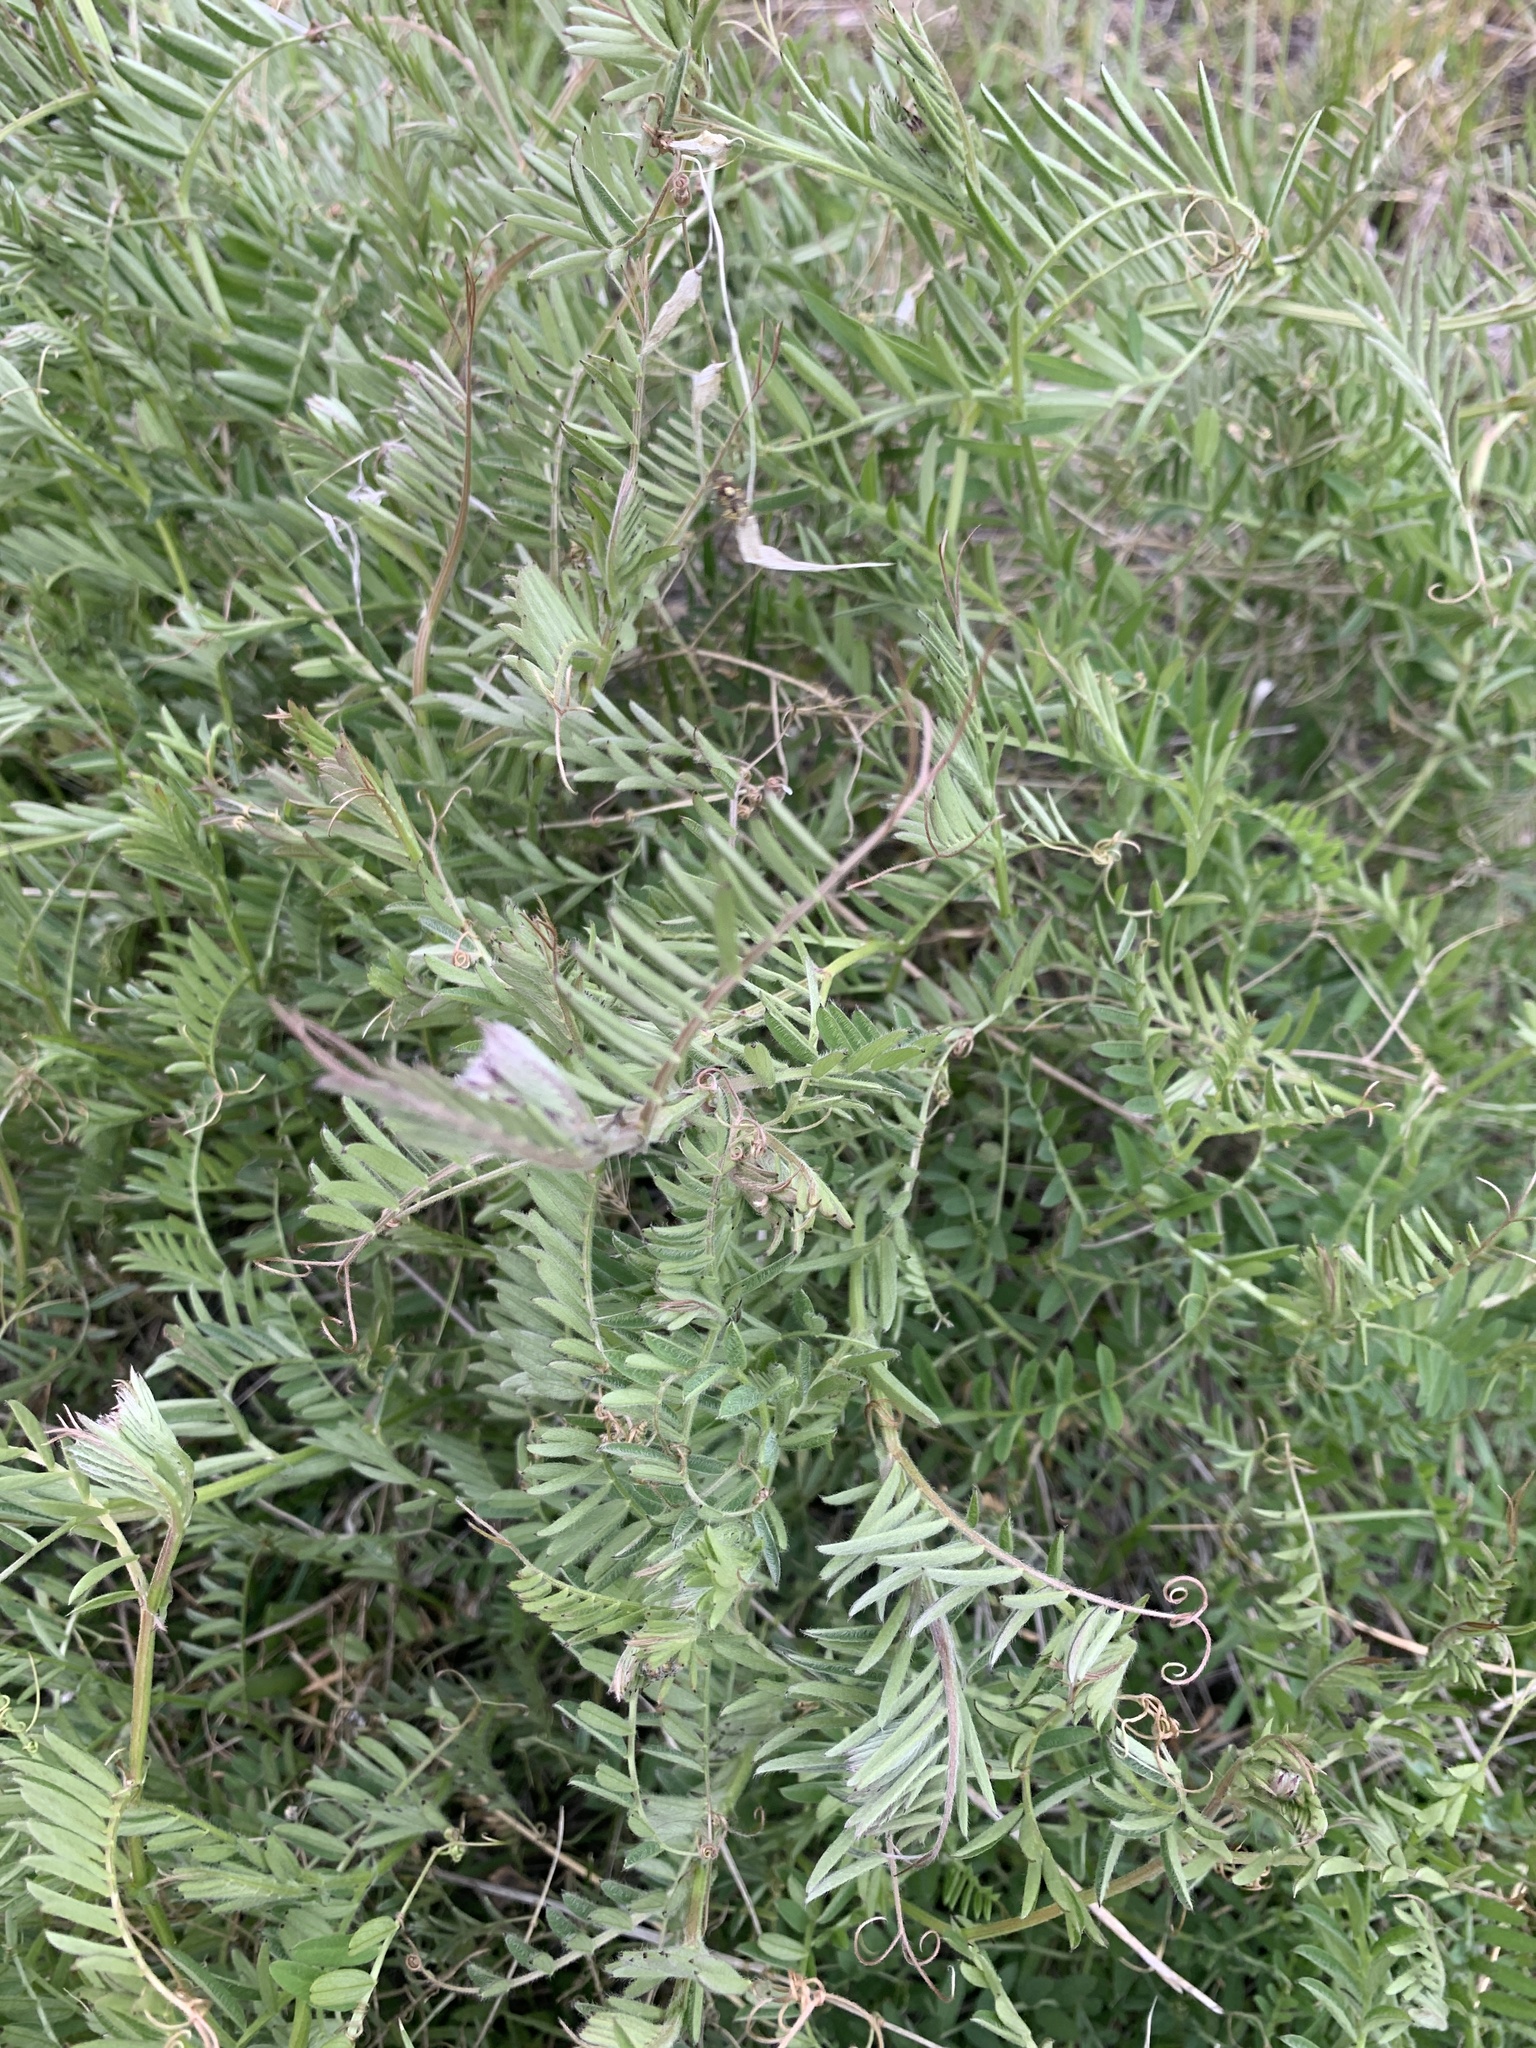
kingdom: Plantae
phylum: Tracheophyta
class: Magnoliopsida
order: Fabales
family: Fabaceae
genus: Vicia
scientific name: Vicia villosa
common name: Fodder vetch
